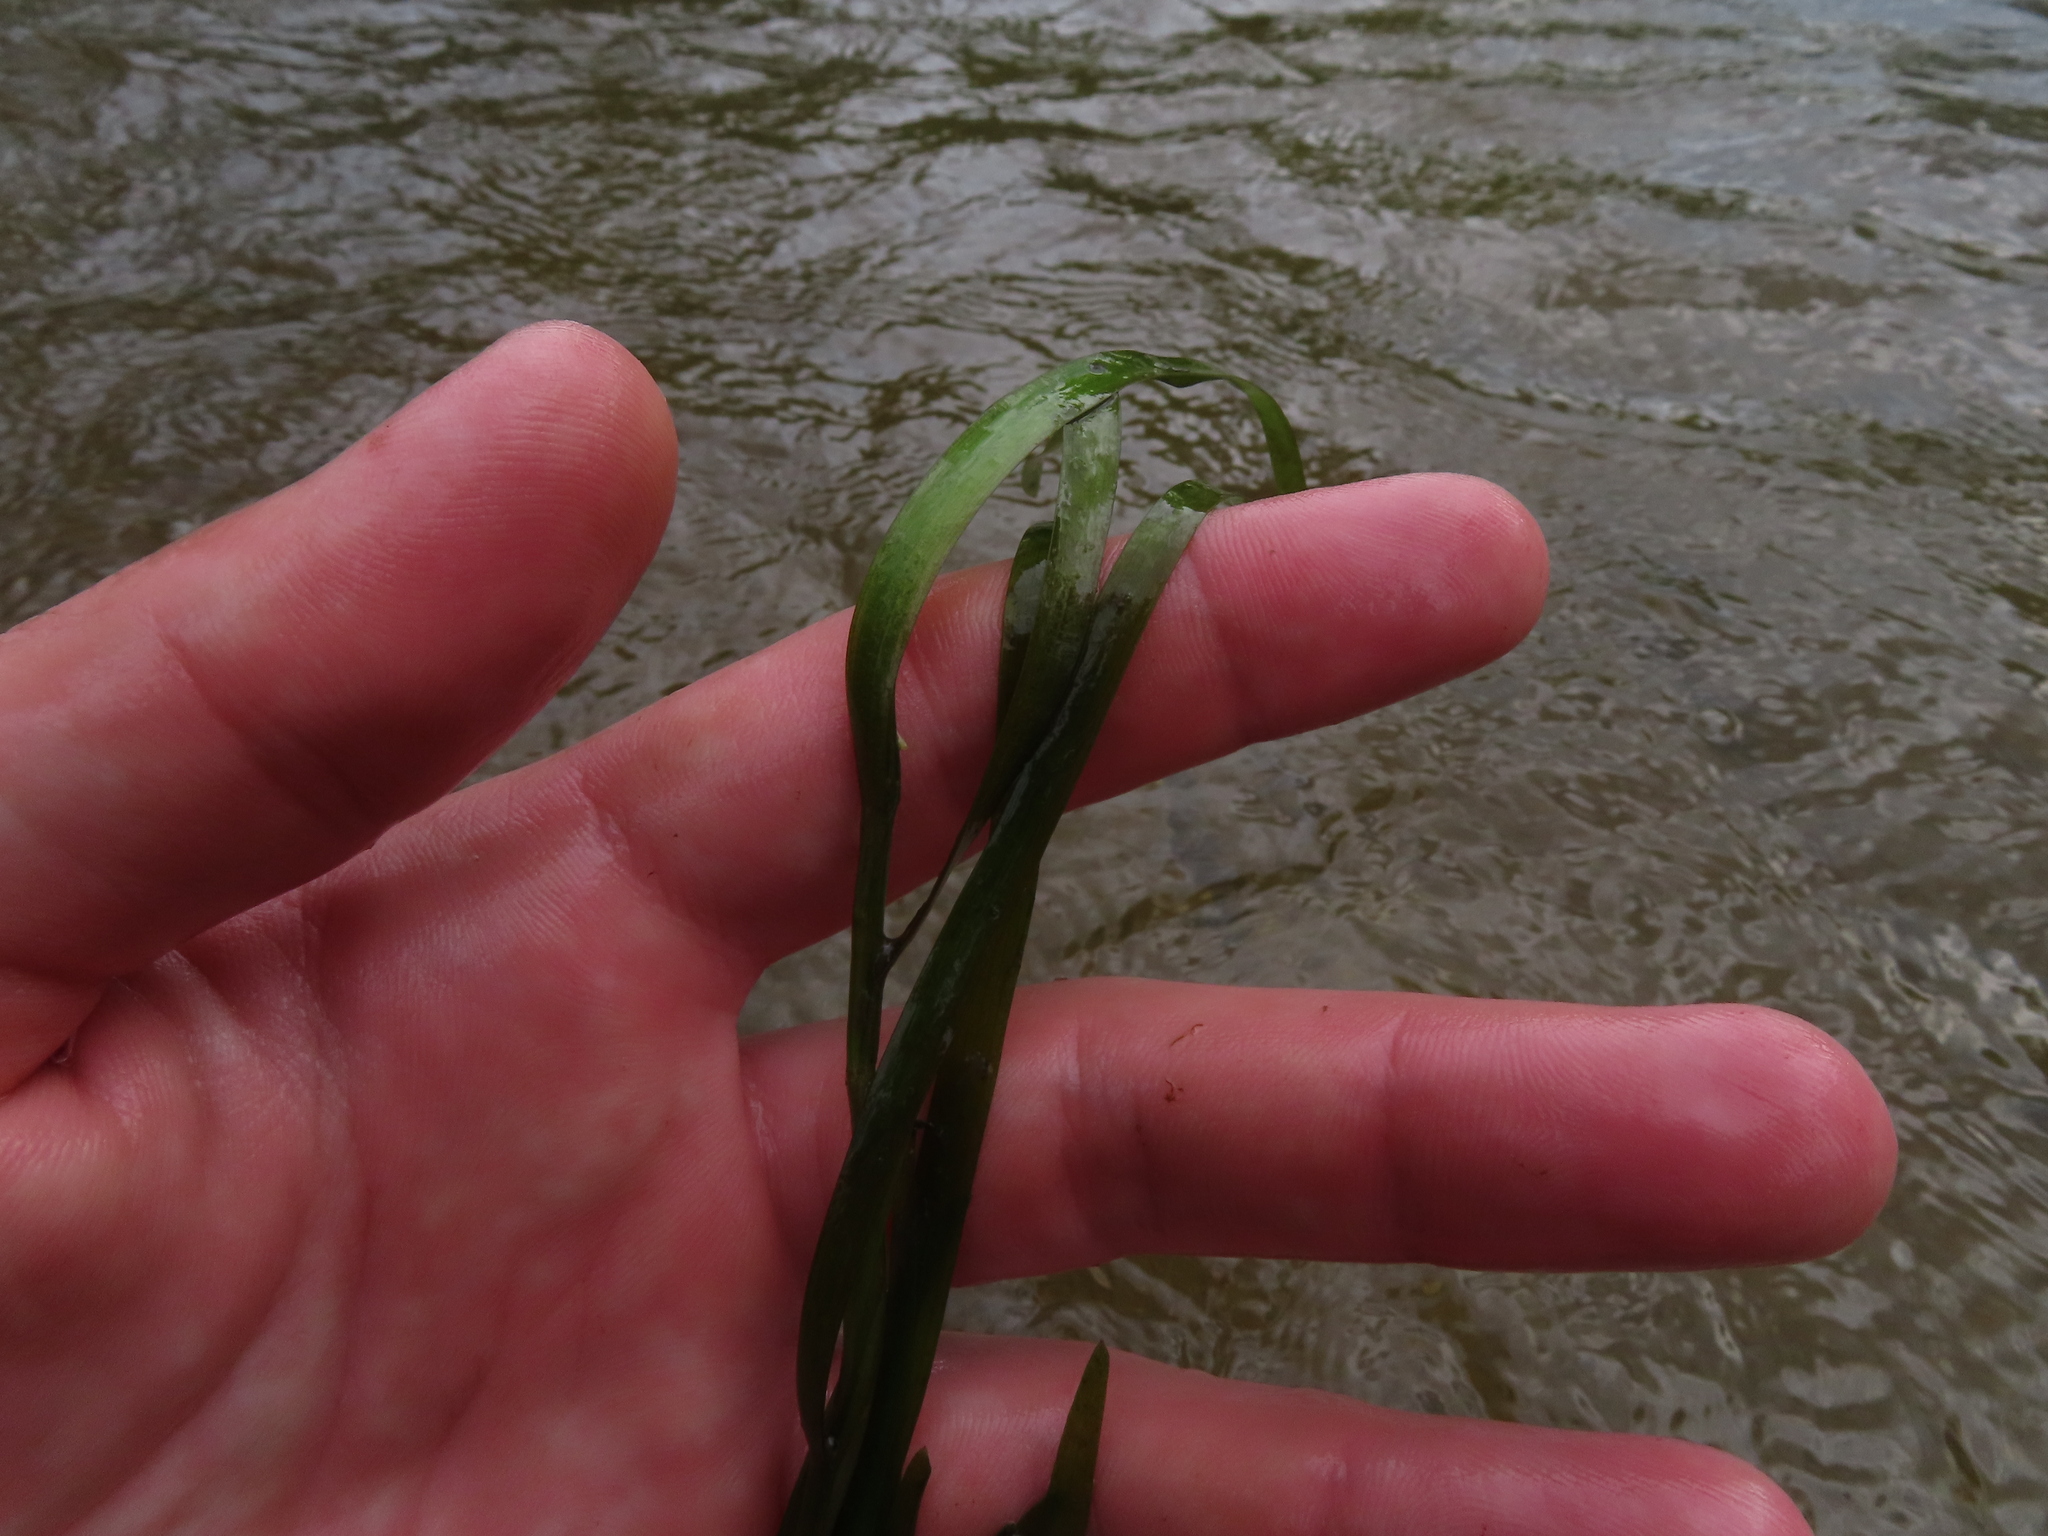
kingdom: Plantae
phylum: Tracheophyta
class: Liliopsida
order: Commelinales
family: Pontederiaceae
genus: Heteranthera
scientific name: Heteranthera dubia
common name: Grass-leaved mud plantain
